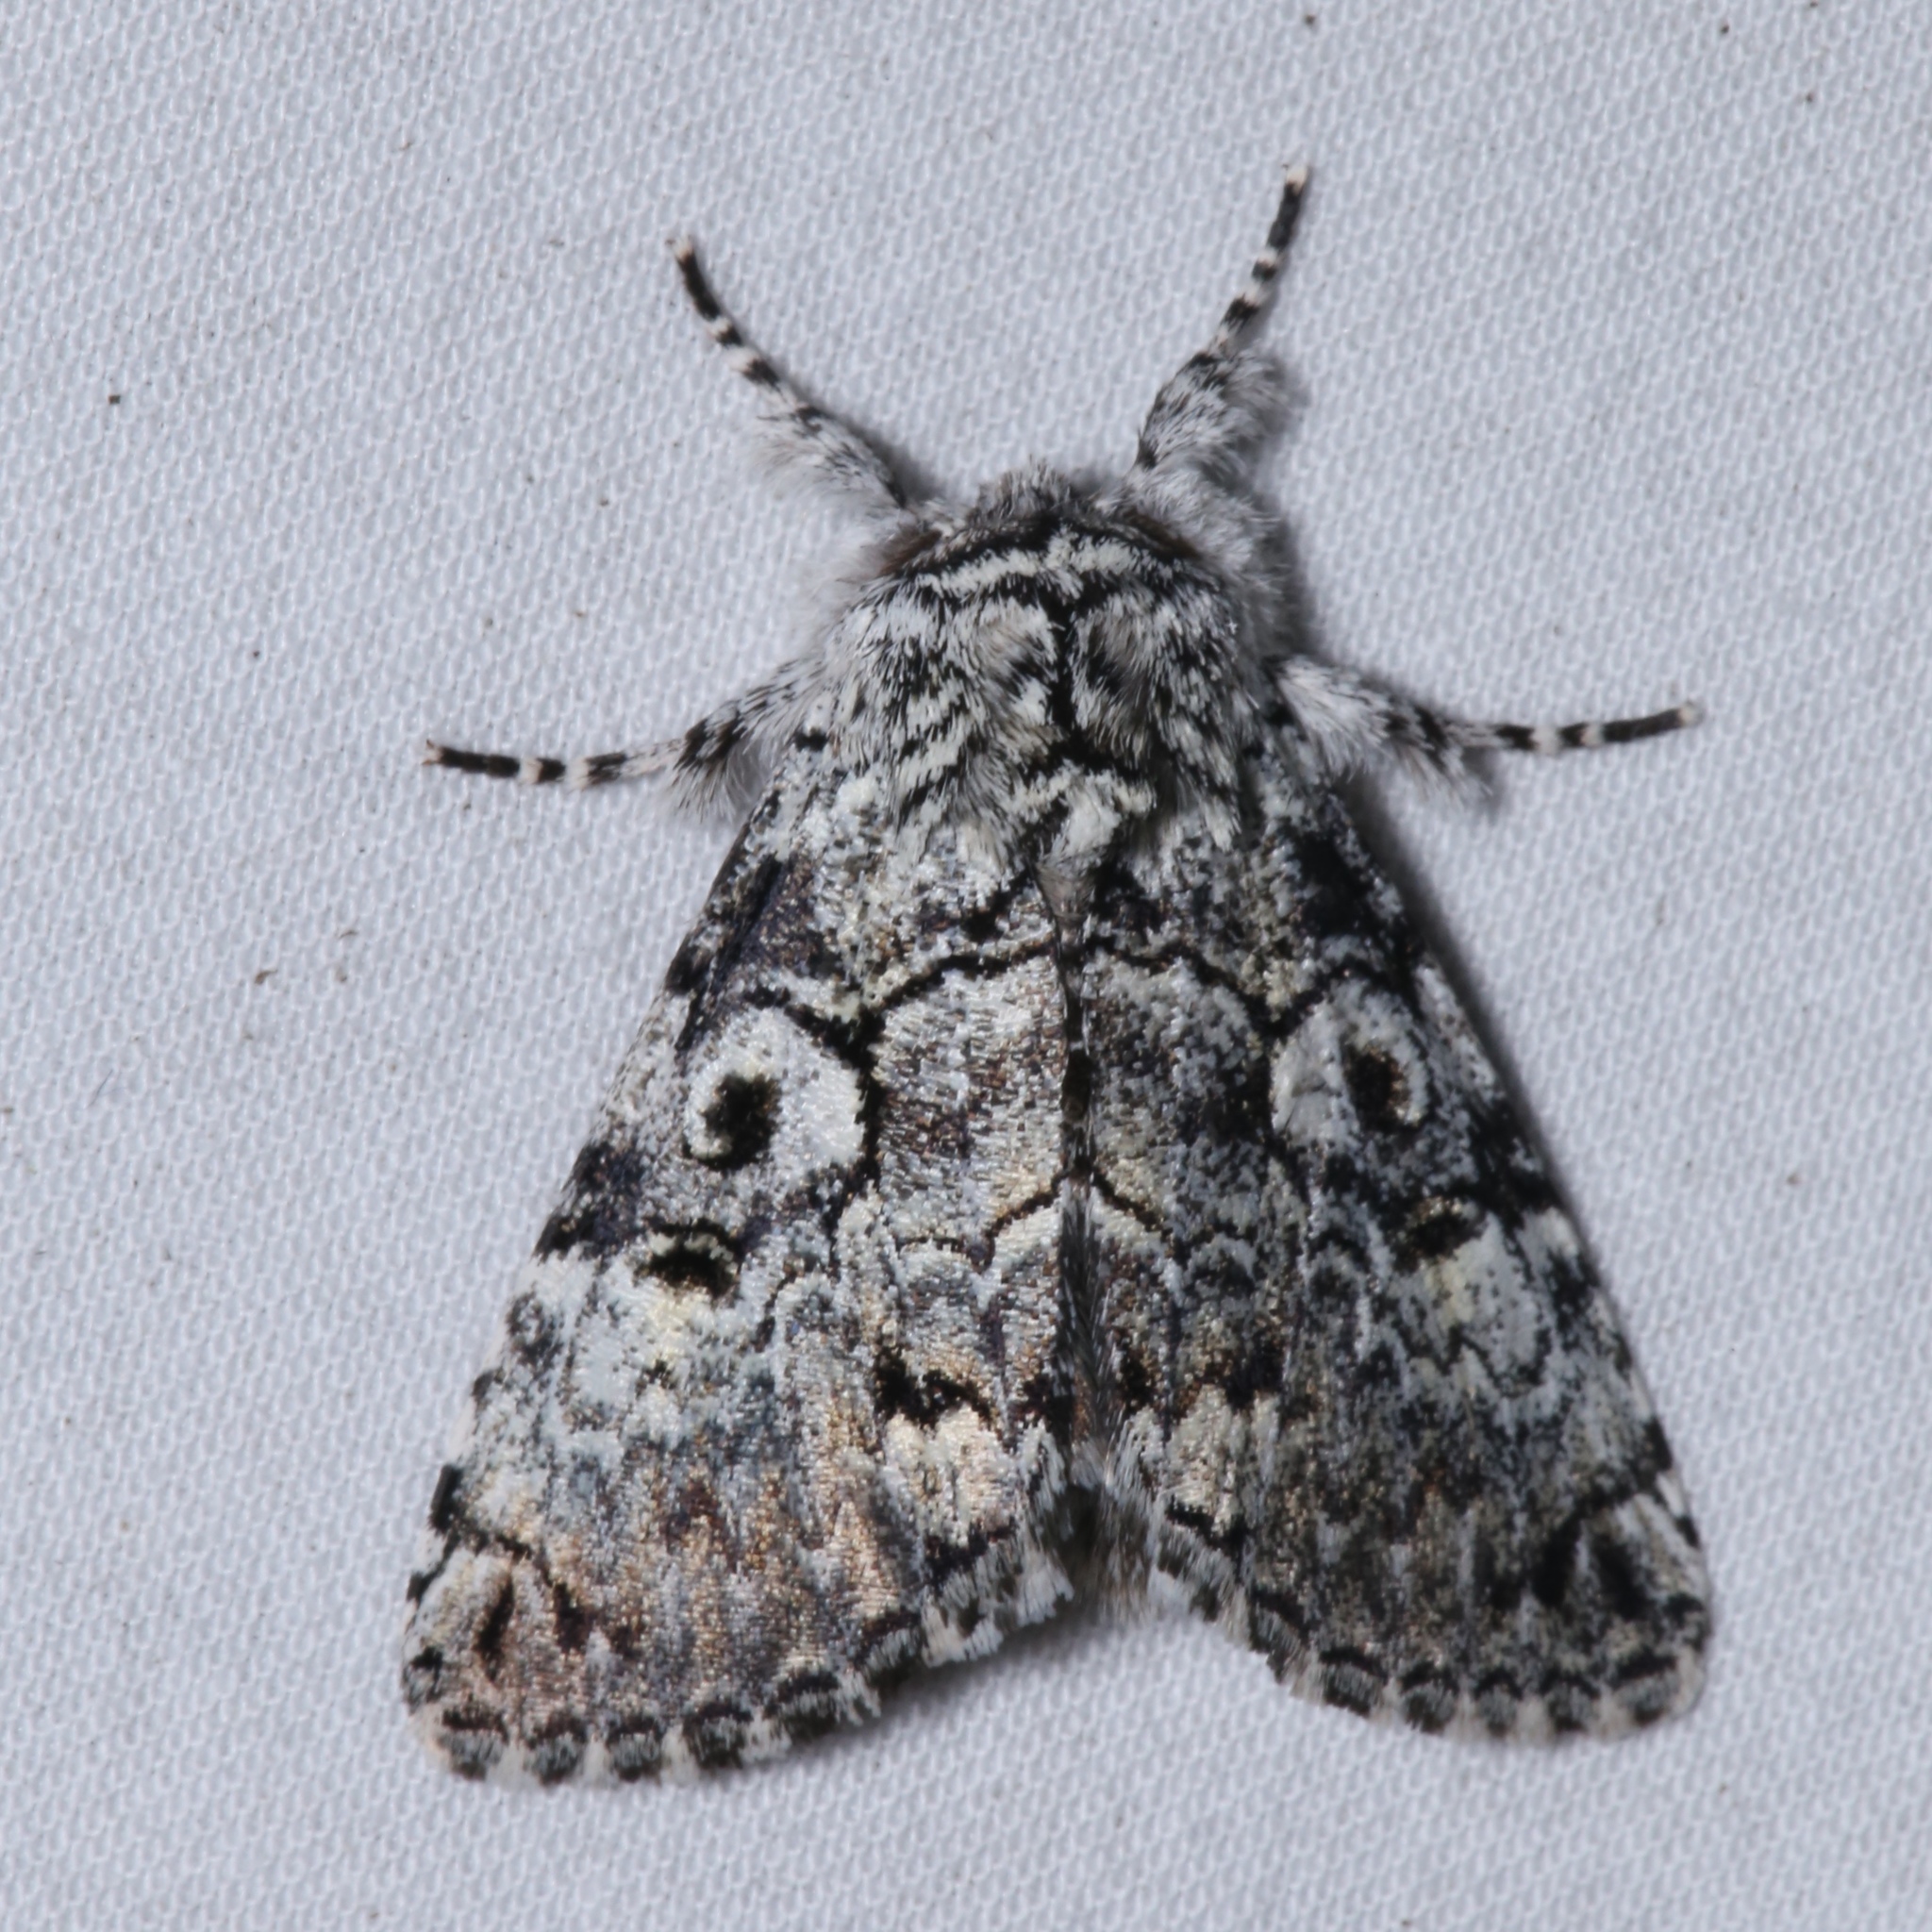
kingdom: Animalia
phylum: Arthropoda
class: Insecta
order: Lepidoptera
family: Noctuidae
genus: Charadra
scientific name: Charadra deridens
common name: Marbled tuffet
